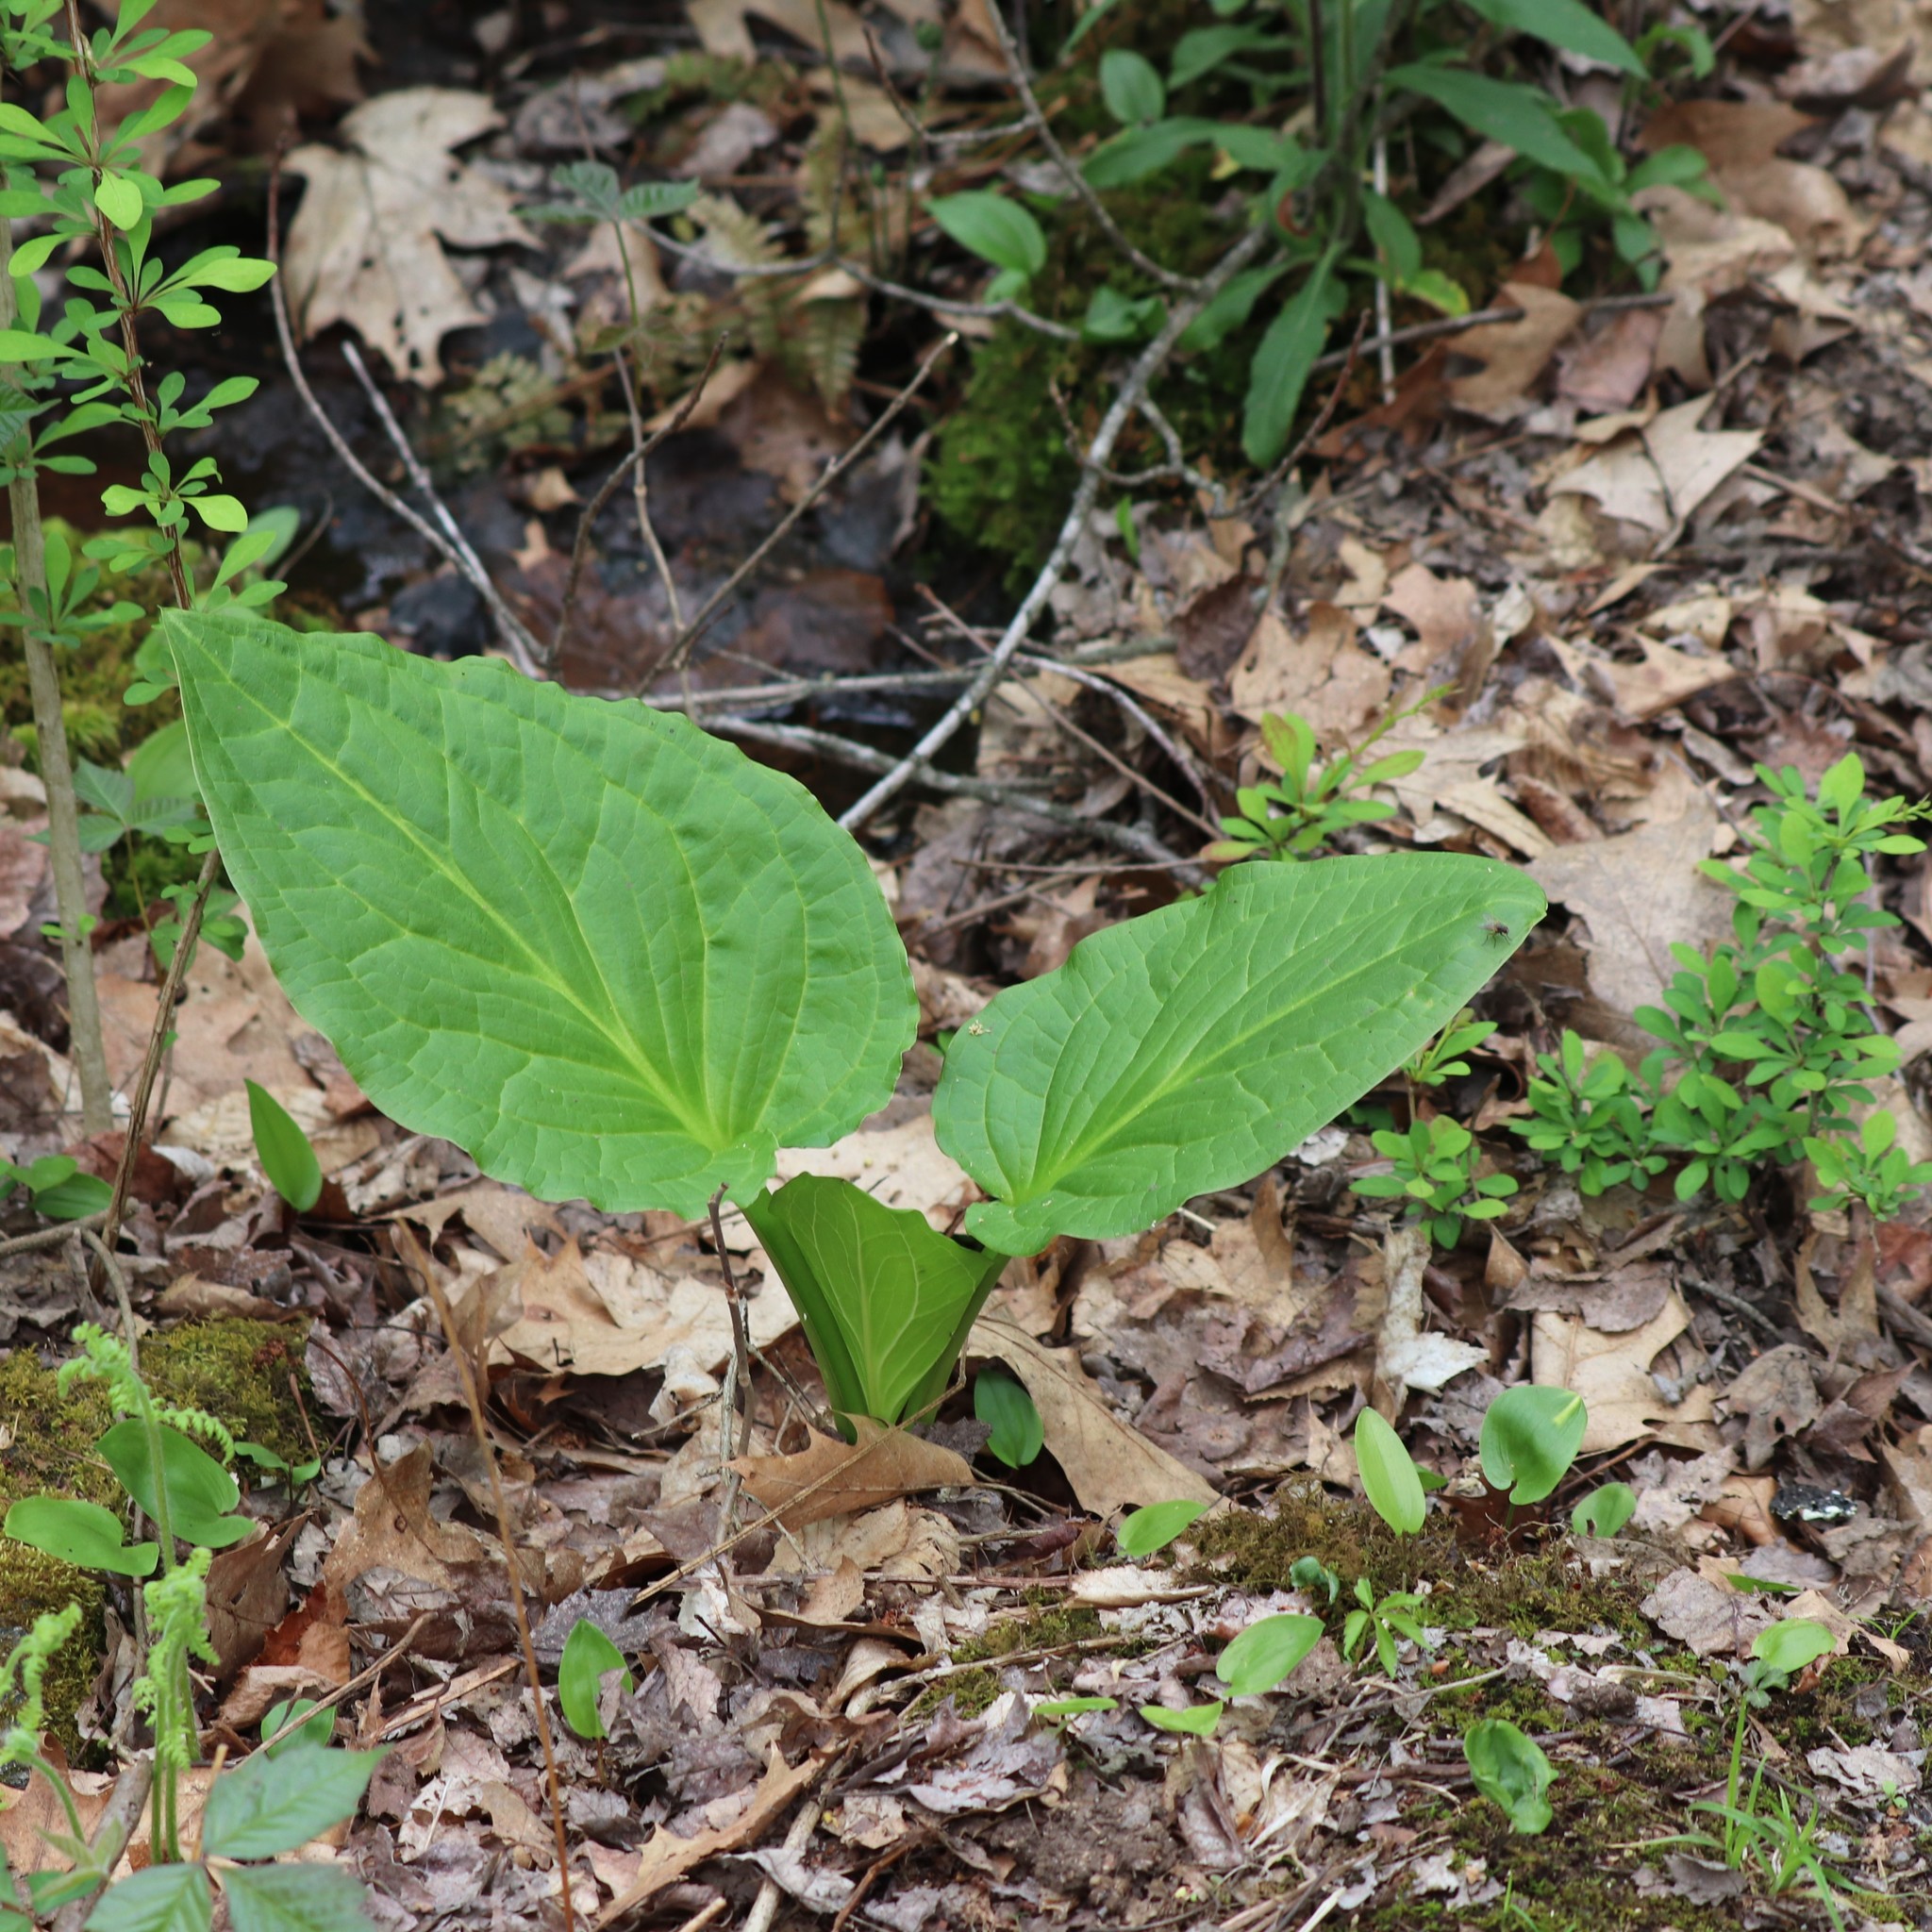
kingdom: Plantae
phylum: Tracheophyta
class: Liliopsida
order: Alismatales
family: Araceae
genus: Symplocarpus
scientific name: Symplocarpus foetidus
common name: Eastern skunk cabbage
